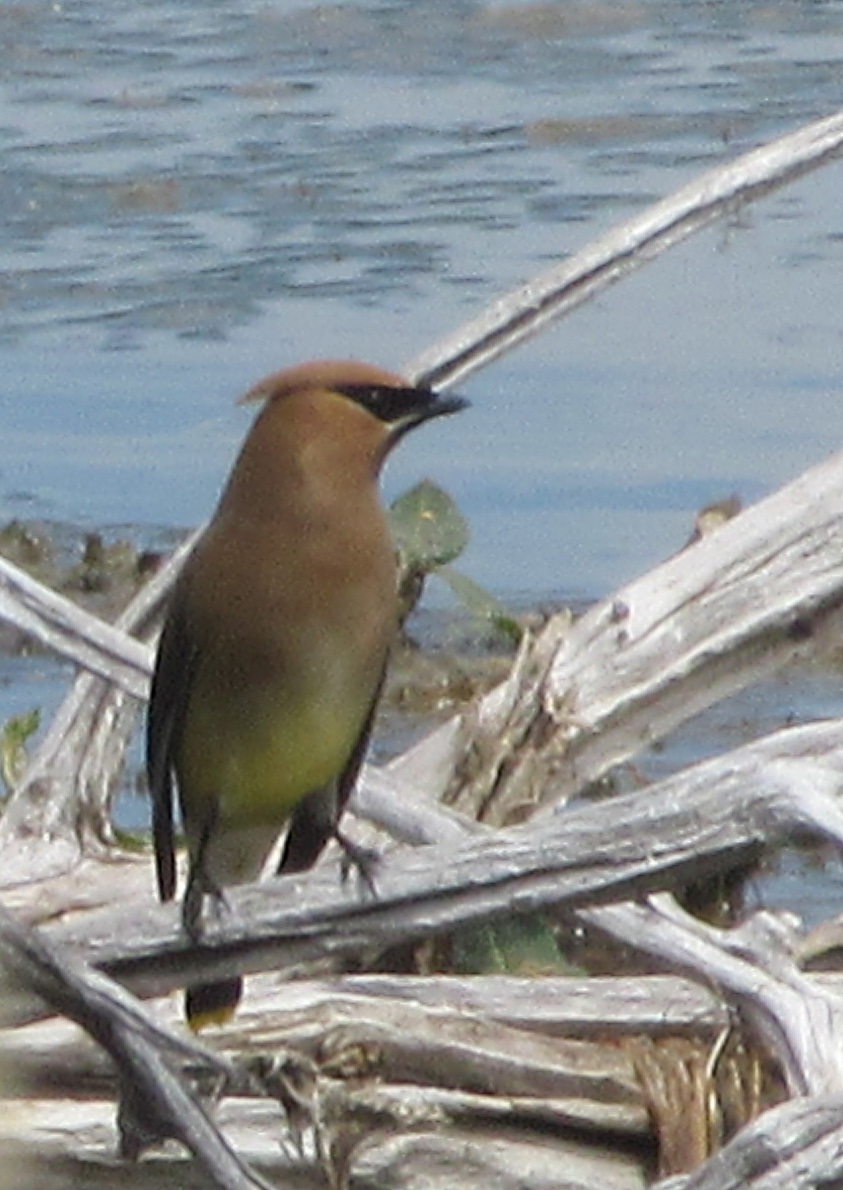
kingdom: Animalia
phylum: Chordata
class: Aves
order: Passeriformes
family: Bombycillidae
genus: Bombycilla
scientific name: Bombycilla cedrorum
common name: Cedar waxwing
